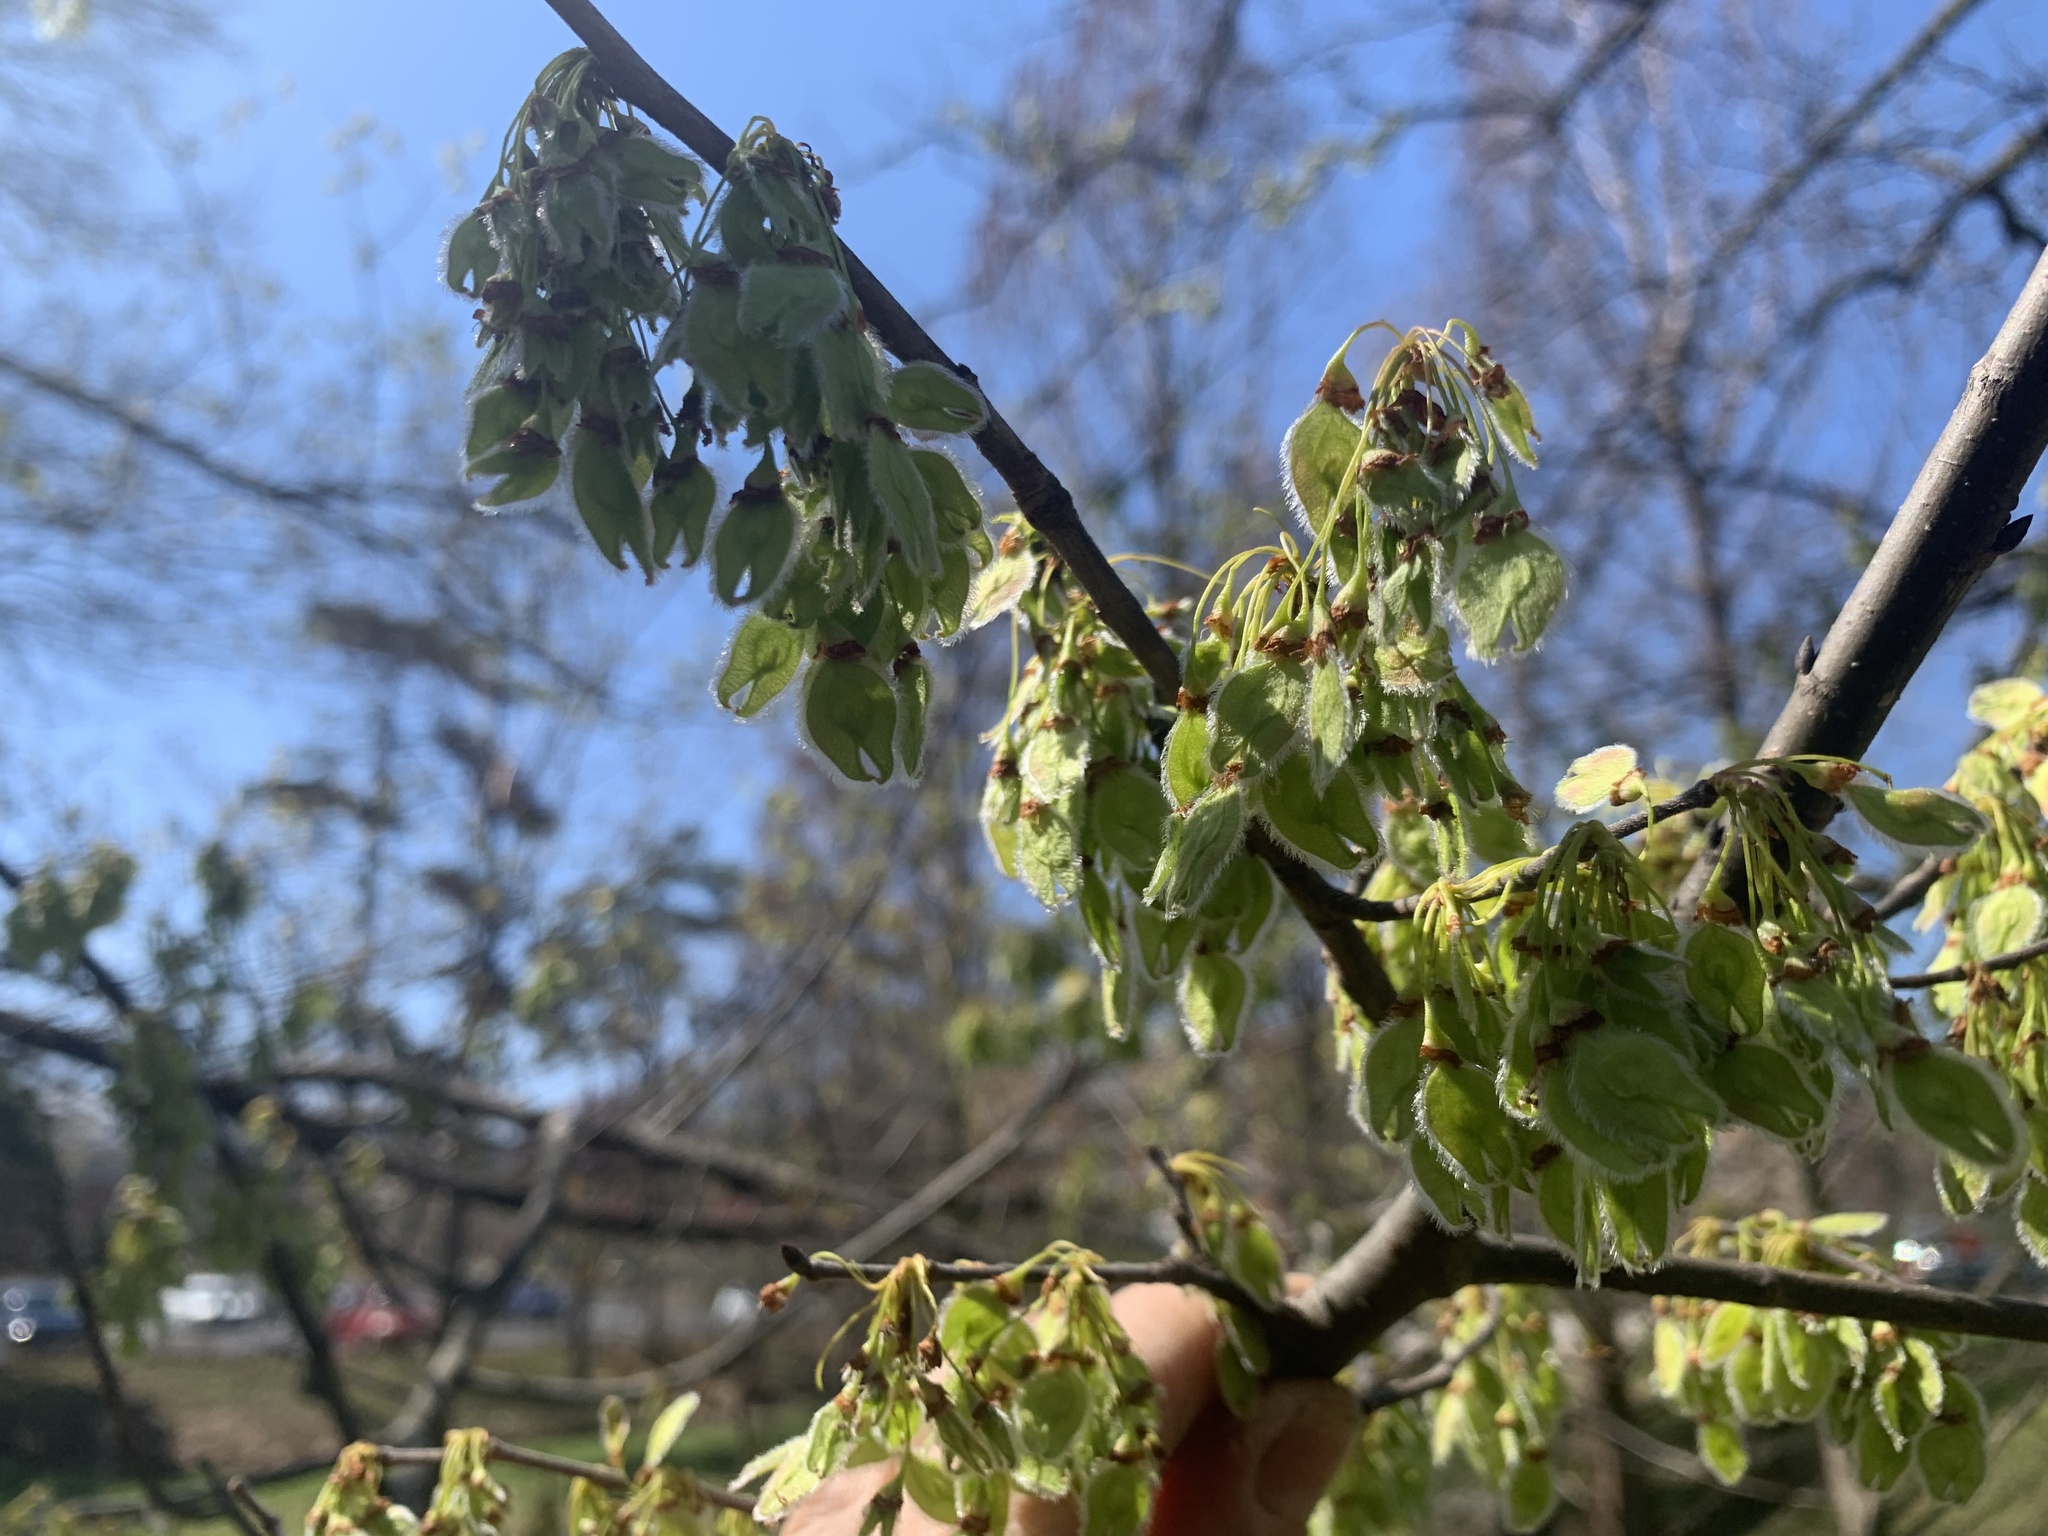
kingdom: Plantae
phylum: Tracheophyta
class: Magnoliopsida
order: Rosales
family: Ulmaceae
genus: Ulmus
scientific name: Ulmus americana
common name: American elm
